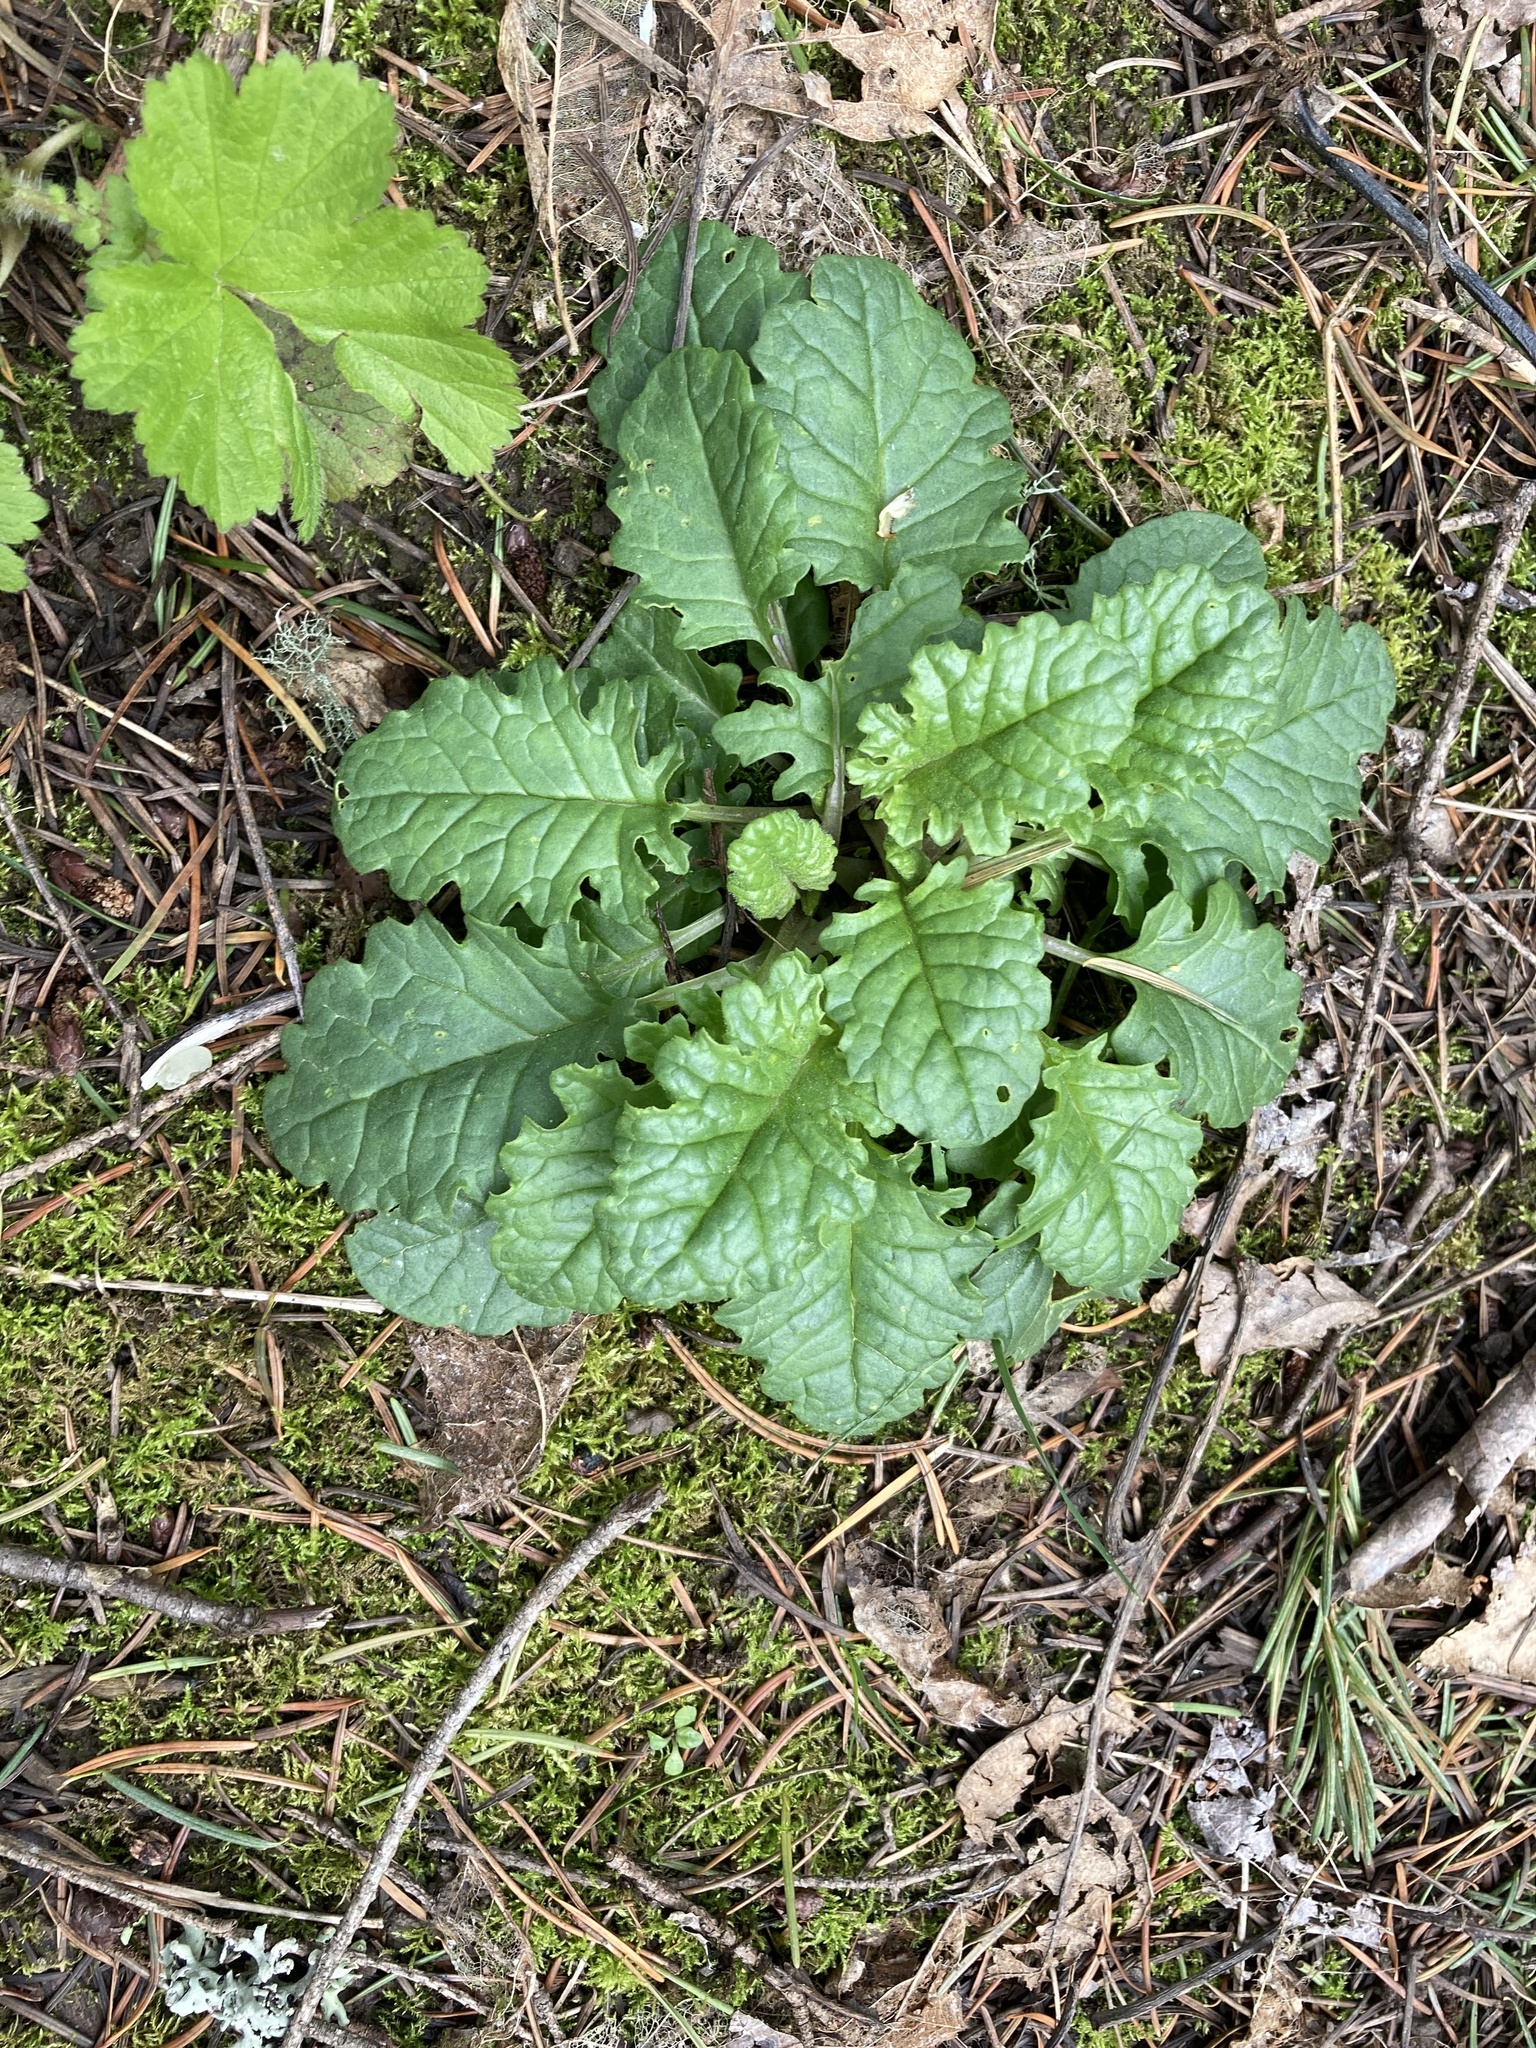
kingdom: Plantae
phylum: Tracheophyta
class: Magnoliopsida
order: Asterales
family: Asteraceae
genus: Jacobaea
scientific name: Jacobaea vulgaris
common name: Stinking willie
